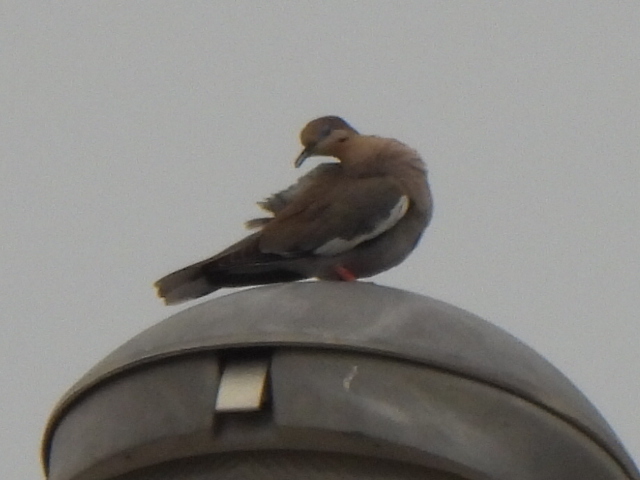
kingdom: Animalia
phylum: Chordata
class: Aves
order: Columbiformes
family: Columbidae
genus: Zenaida
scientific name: Zenaida asiatica
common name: White-winged dove
